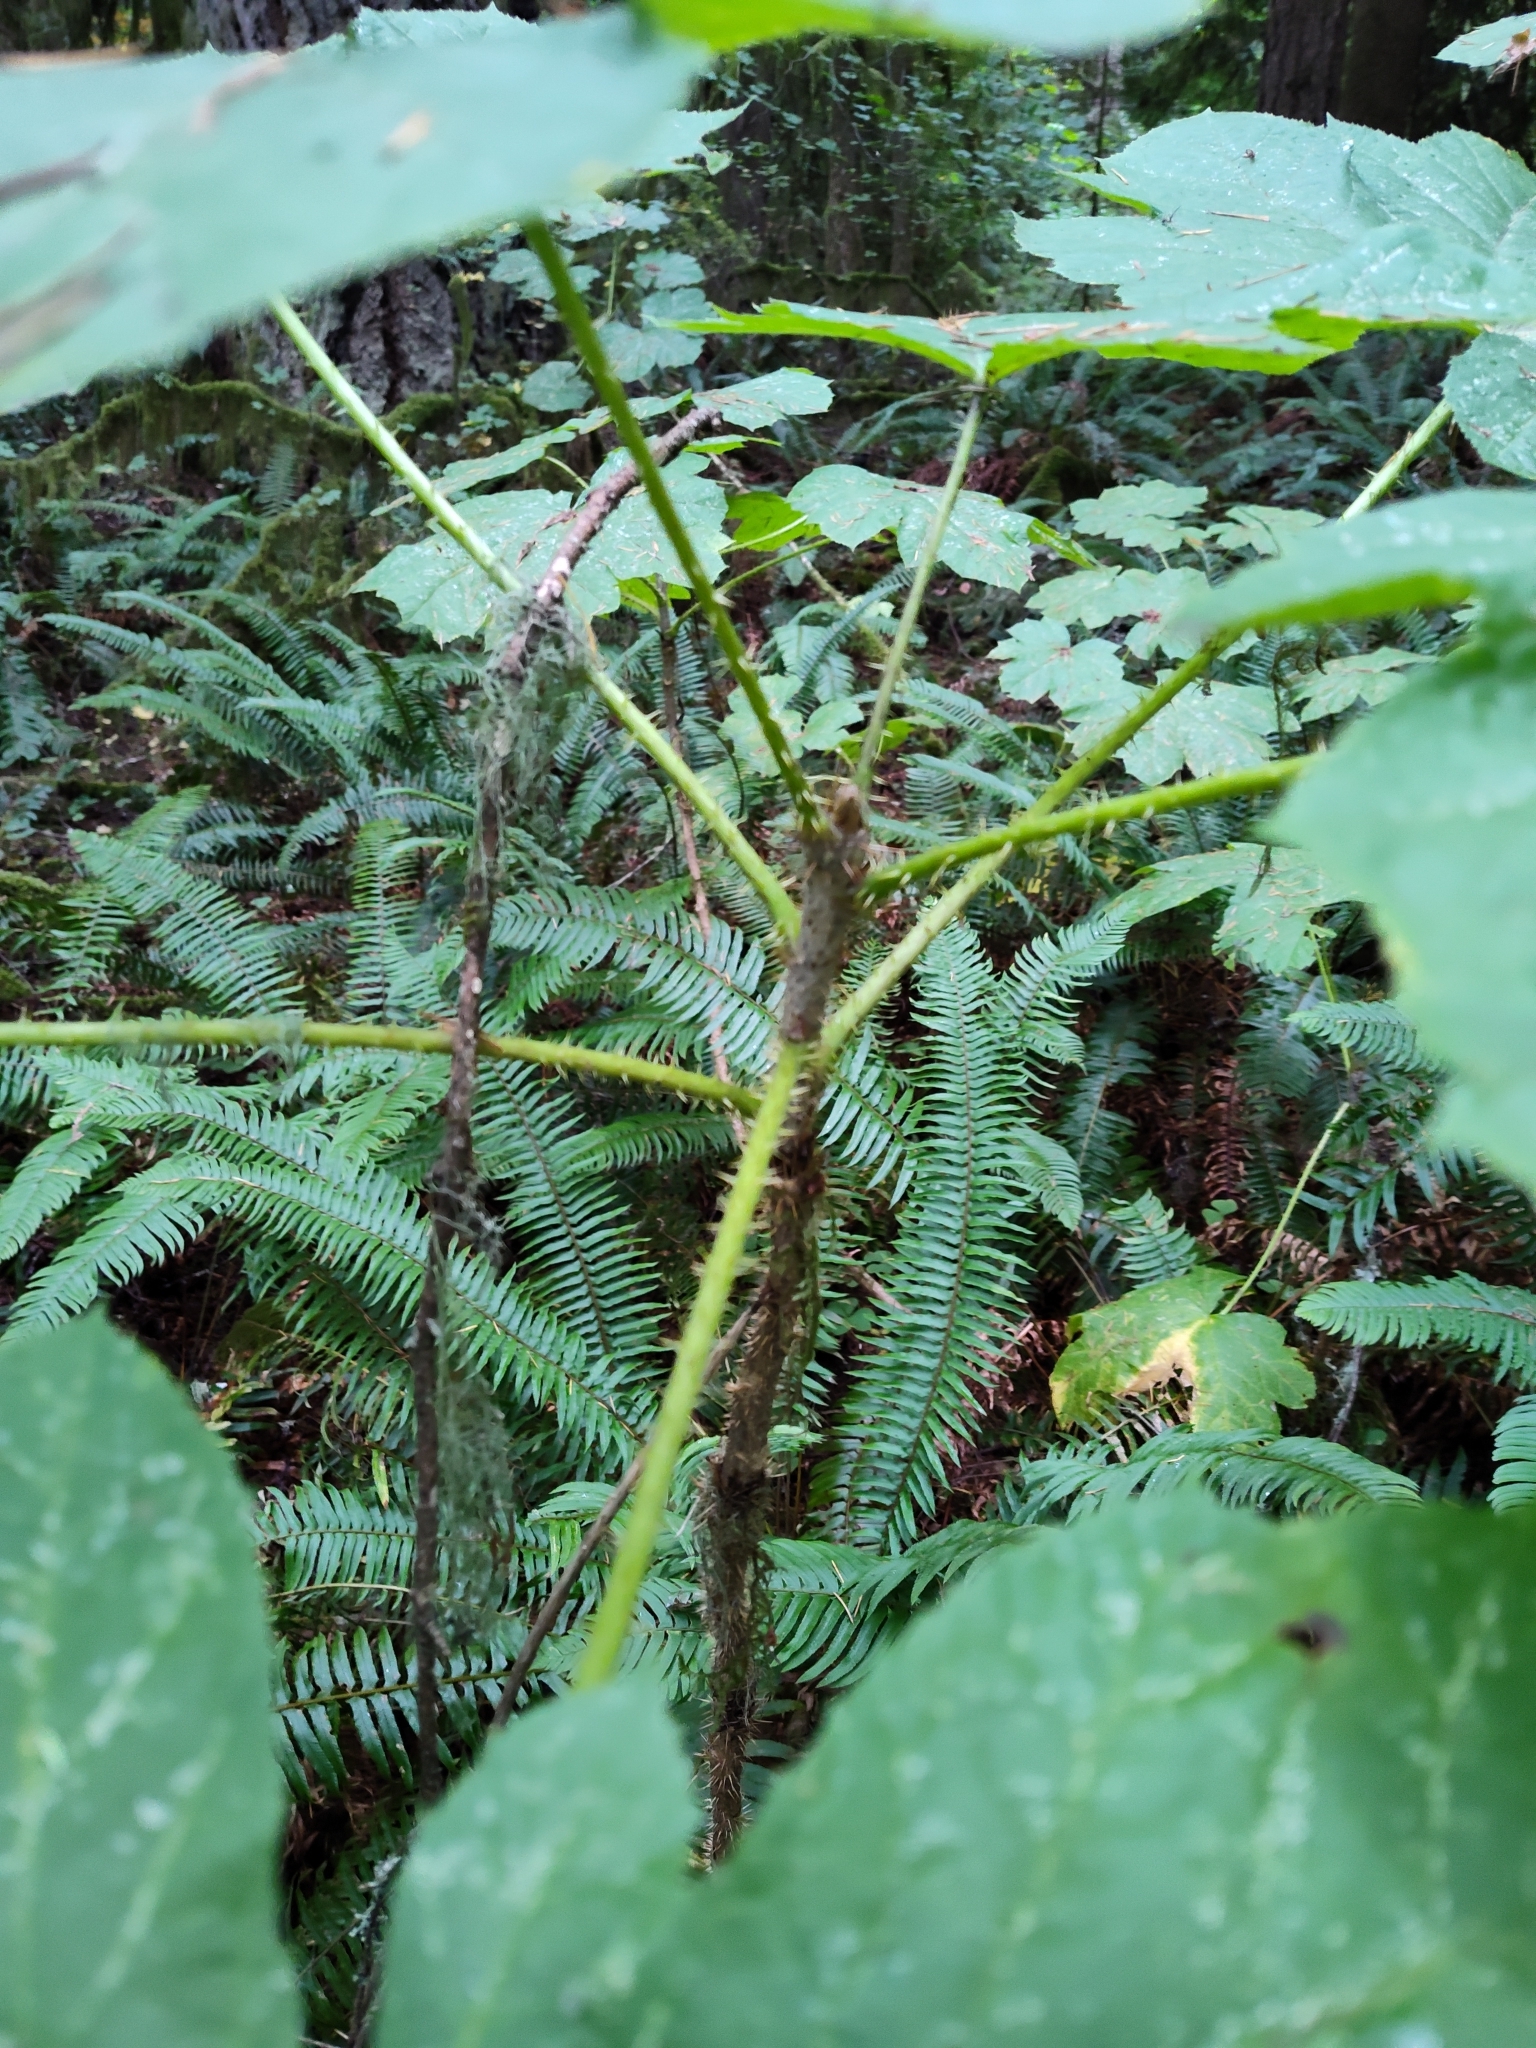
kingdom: Plantae
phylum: Tracheophyta
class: Magnoliopsida
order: Apiales
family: Araliaceae
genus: Oplopanax
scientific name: Oplopanax horridus
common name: Devil's walking-stick
